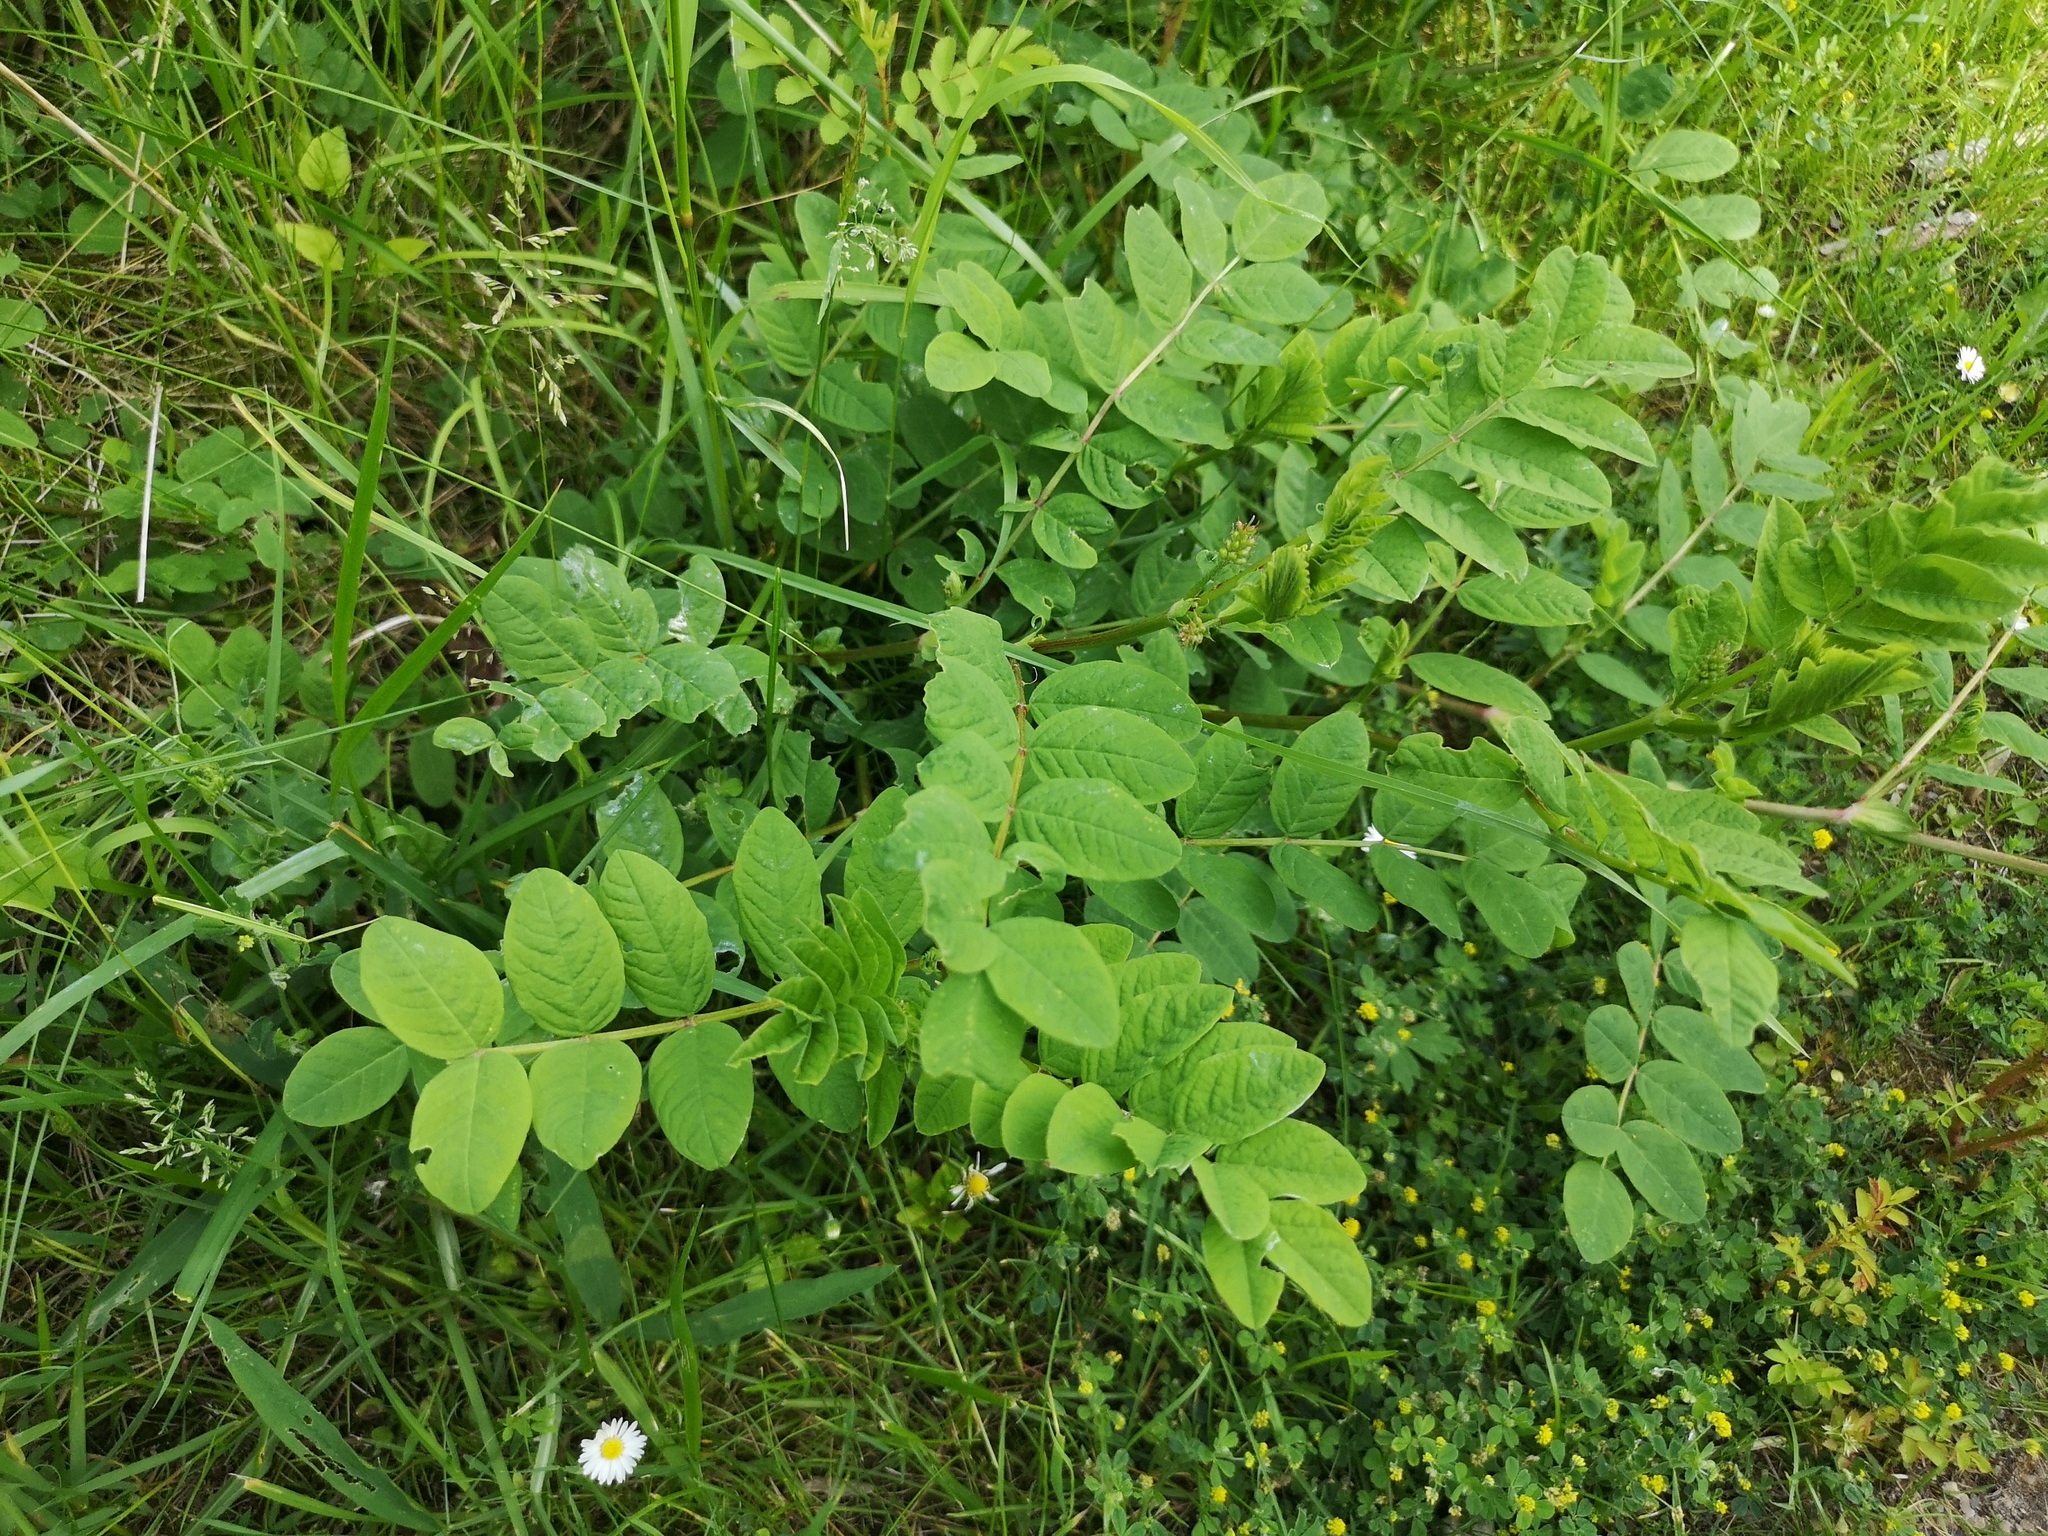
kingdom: Plantae
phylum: Tracheophyta
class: Magnoliopsida
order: Fabales
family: Fabaceae
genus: Astragalus
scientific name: Astragalus glycyphyllos
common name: Wild liquorice
